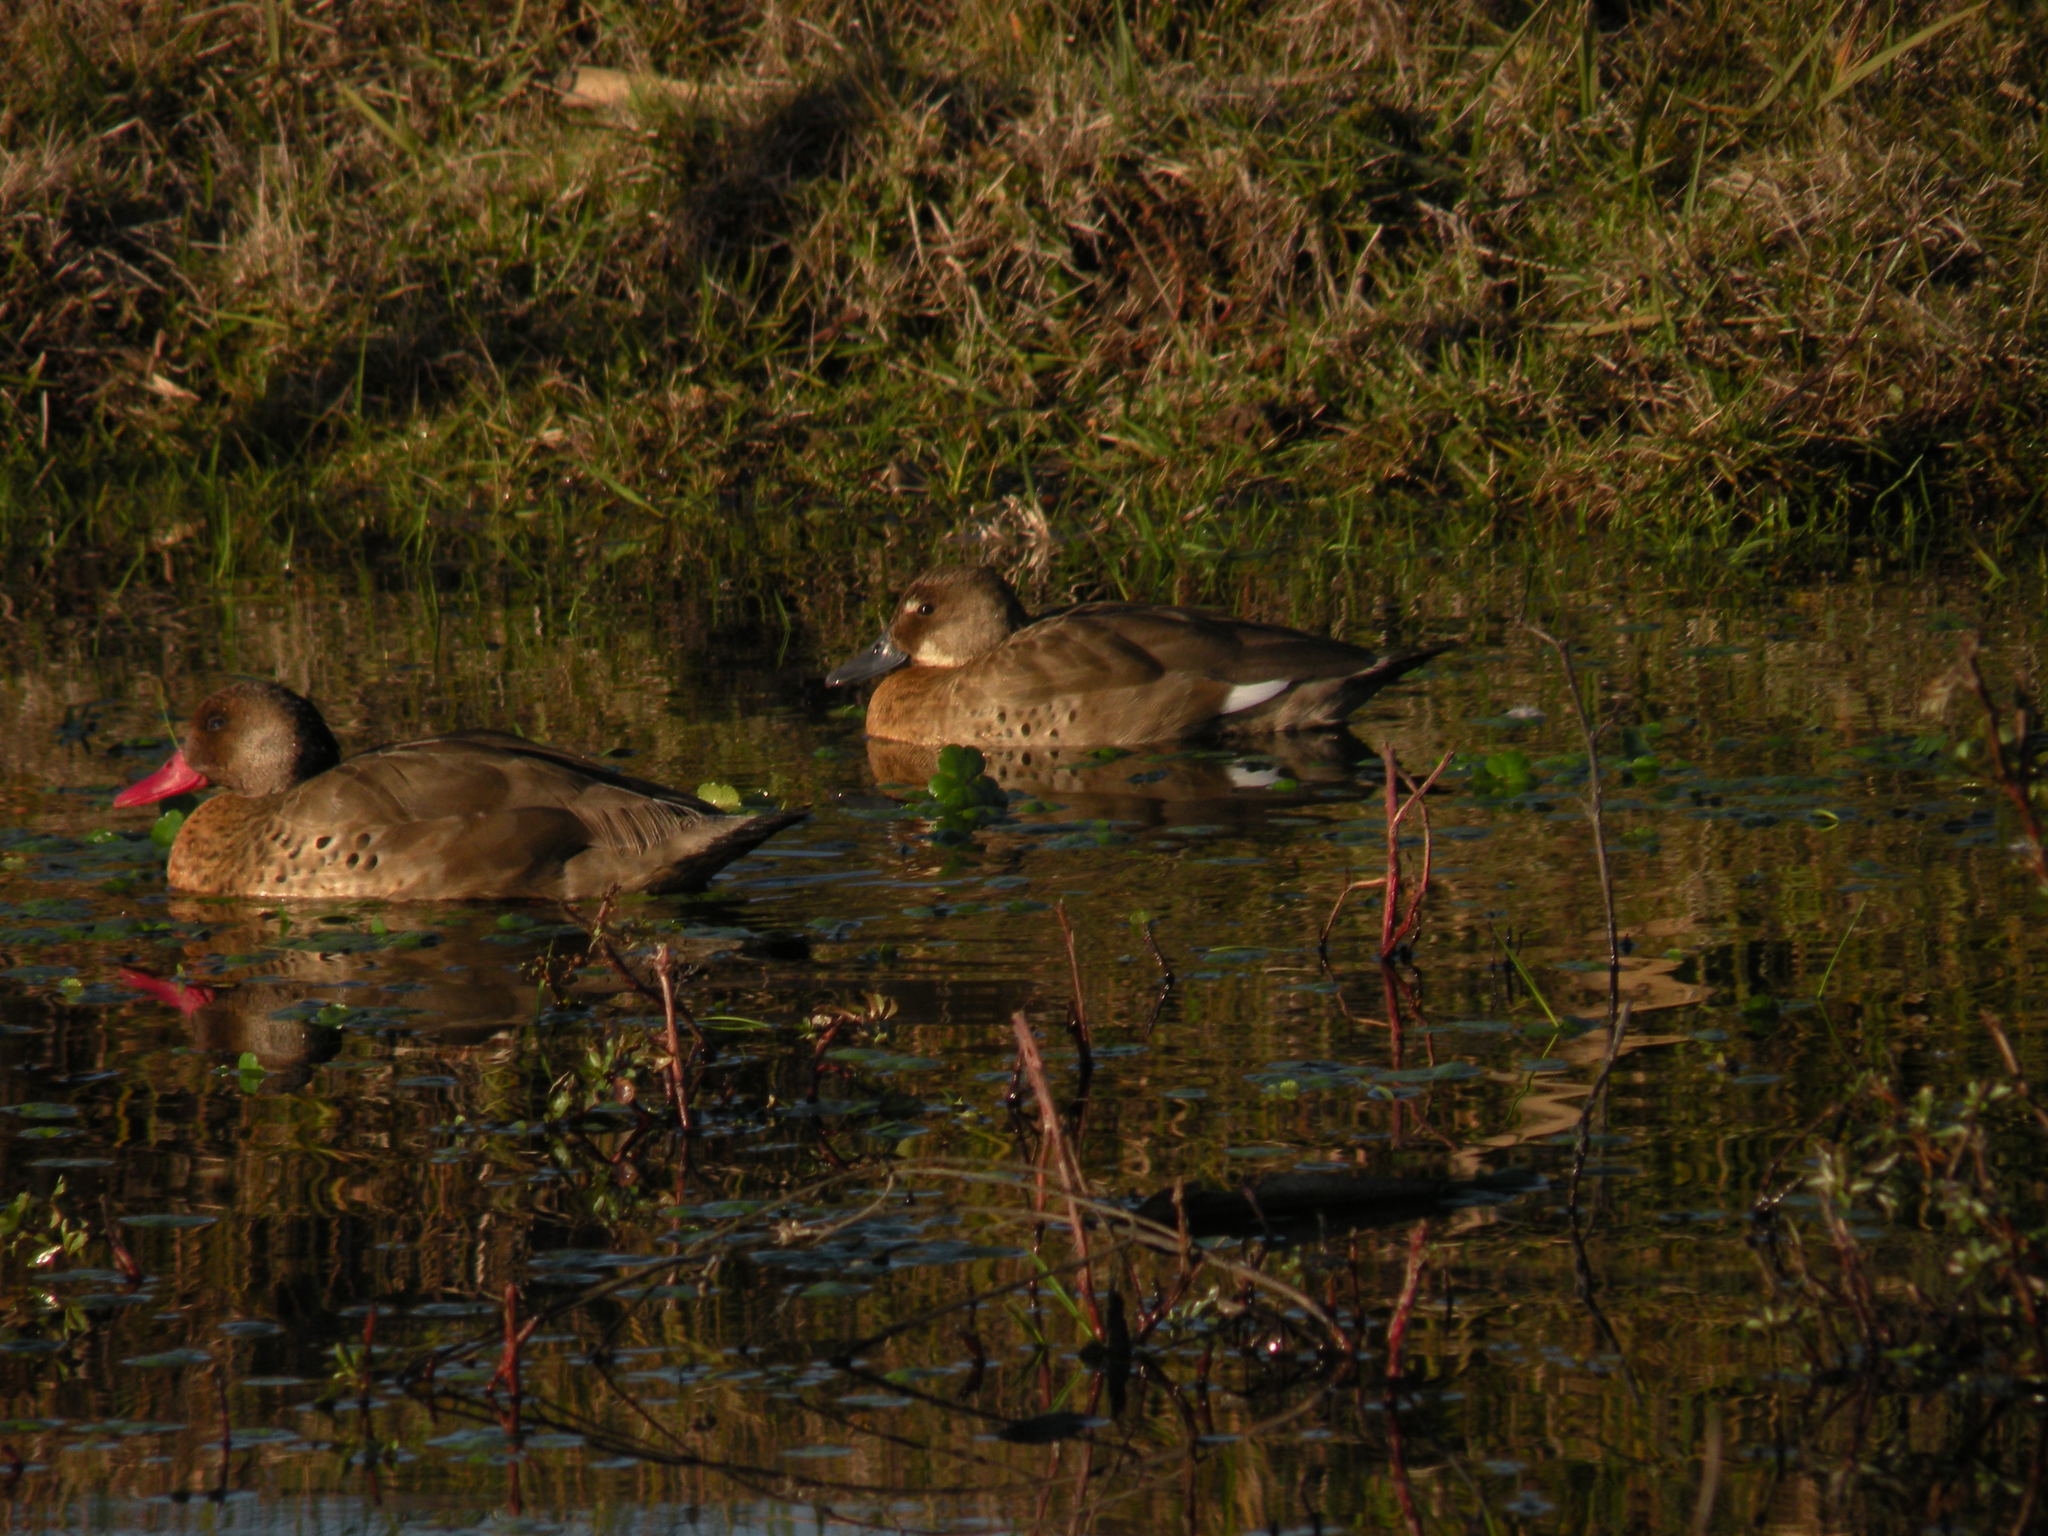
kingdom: Animalia
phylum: Chordata
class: Aves
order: Anseriformes
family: Anatidae
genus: Amazonetta
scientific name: Amazonetta brasiliensis
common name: Brazilian teal
